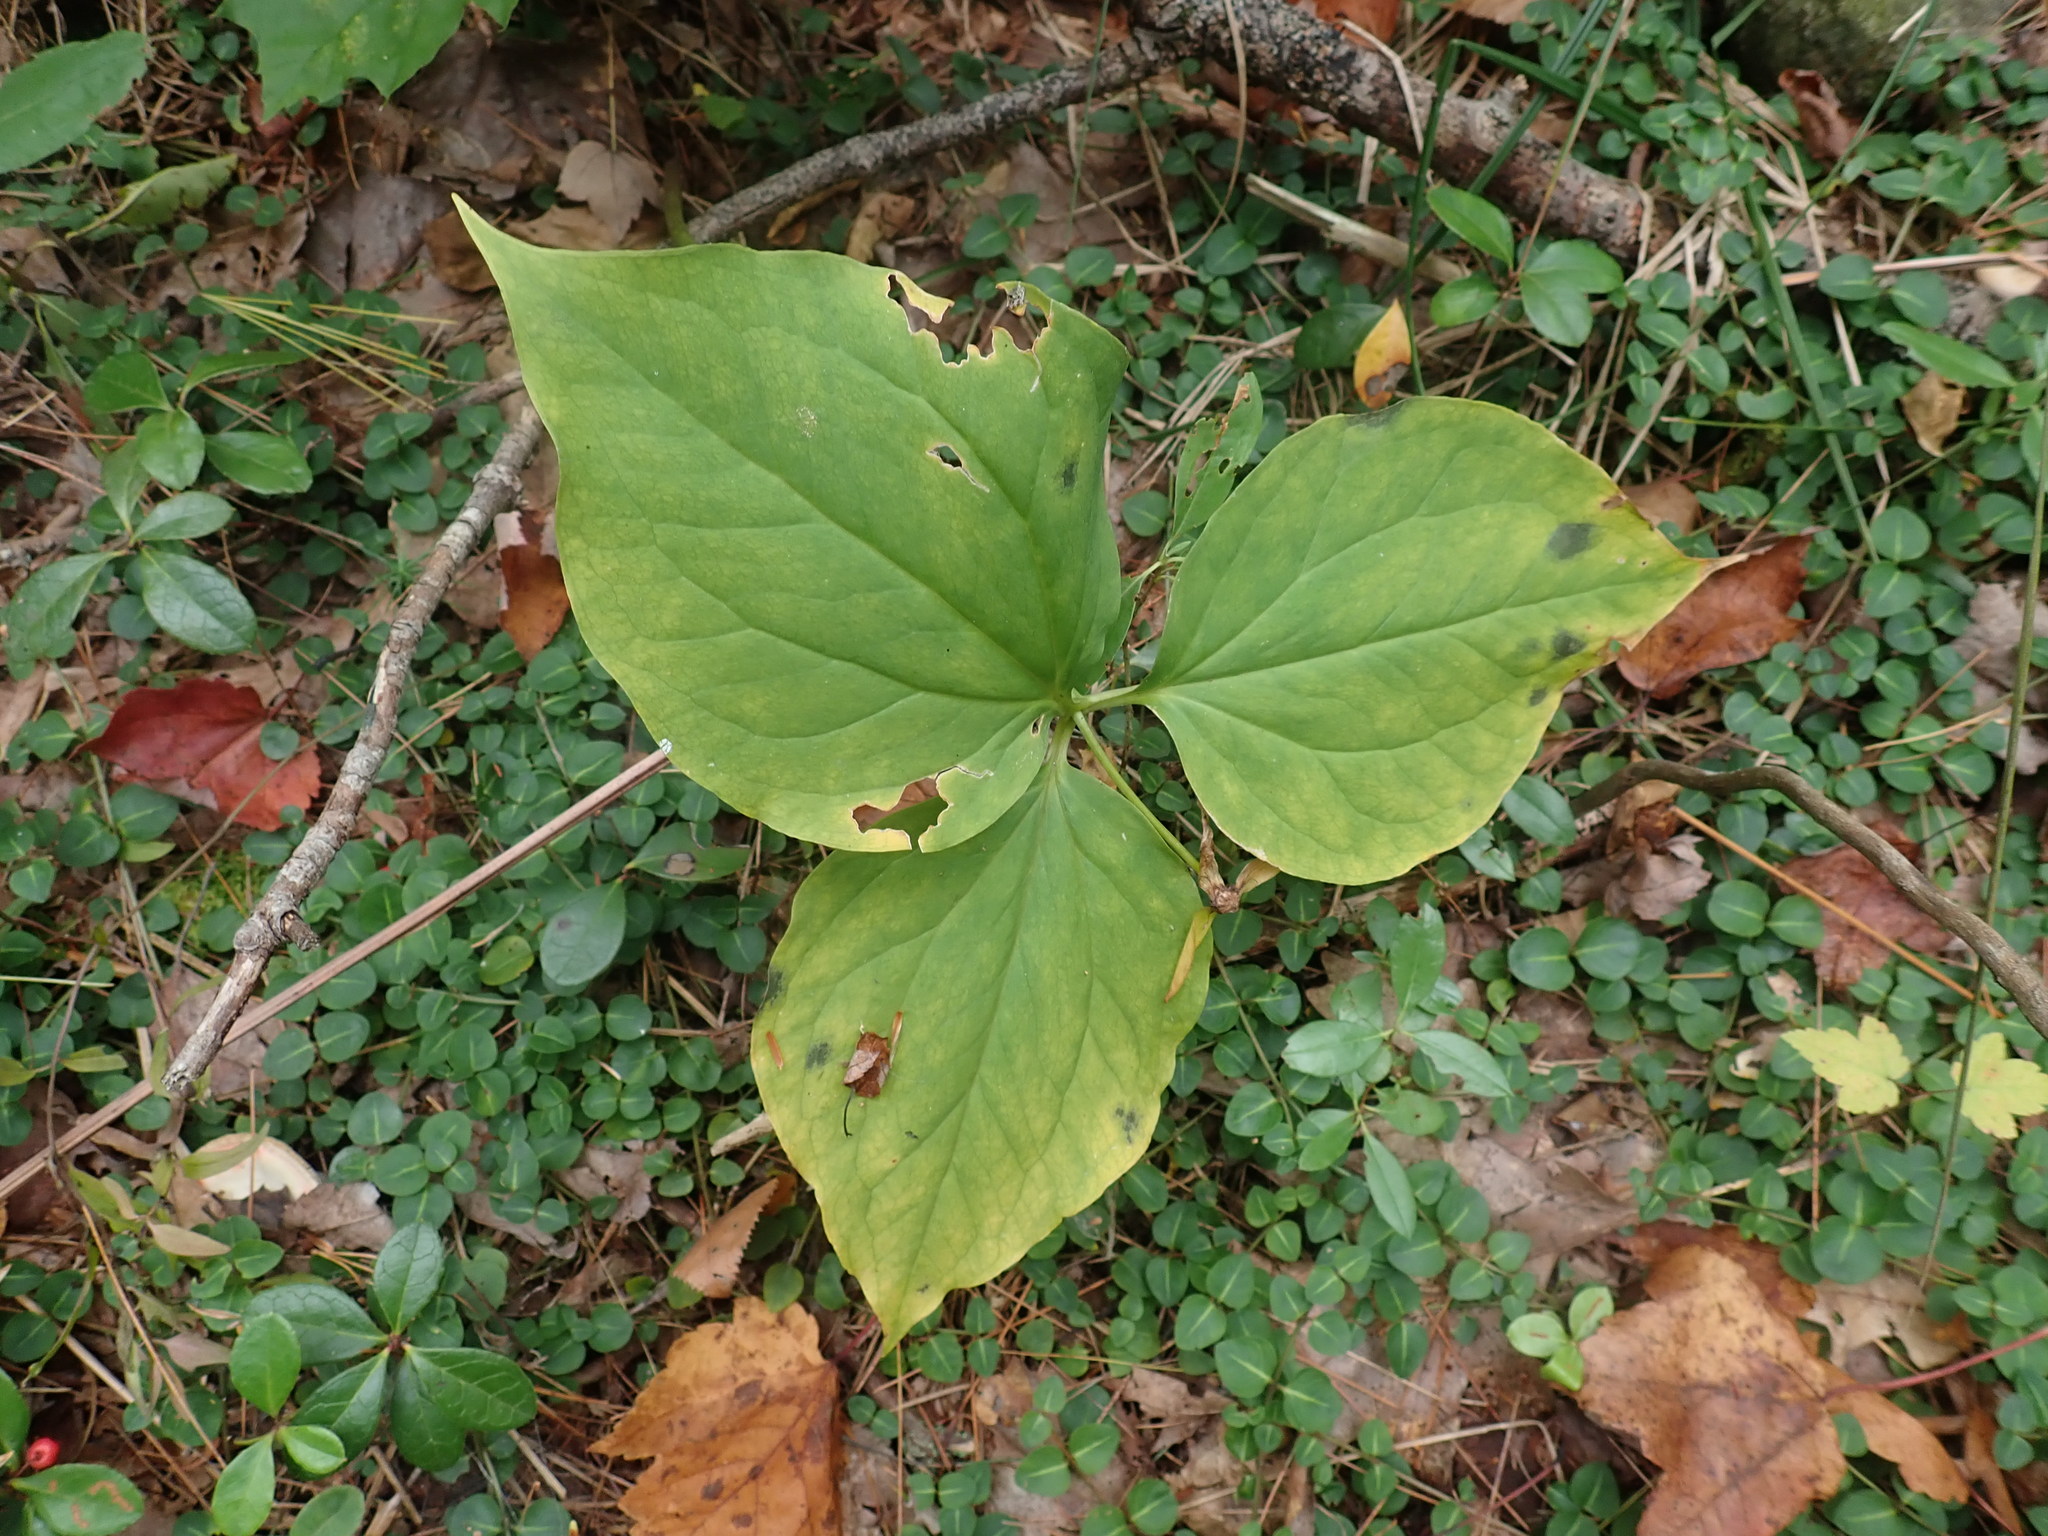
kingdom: Plantae
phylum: Tracheophyta
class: Liliopsida
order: Liliales
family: Melanthiaceae
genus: Trillium
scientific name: Trillium undulatum
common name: Paint trillium
